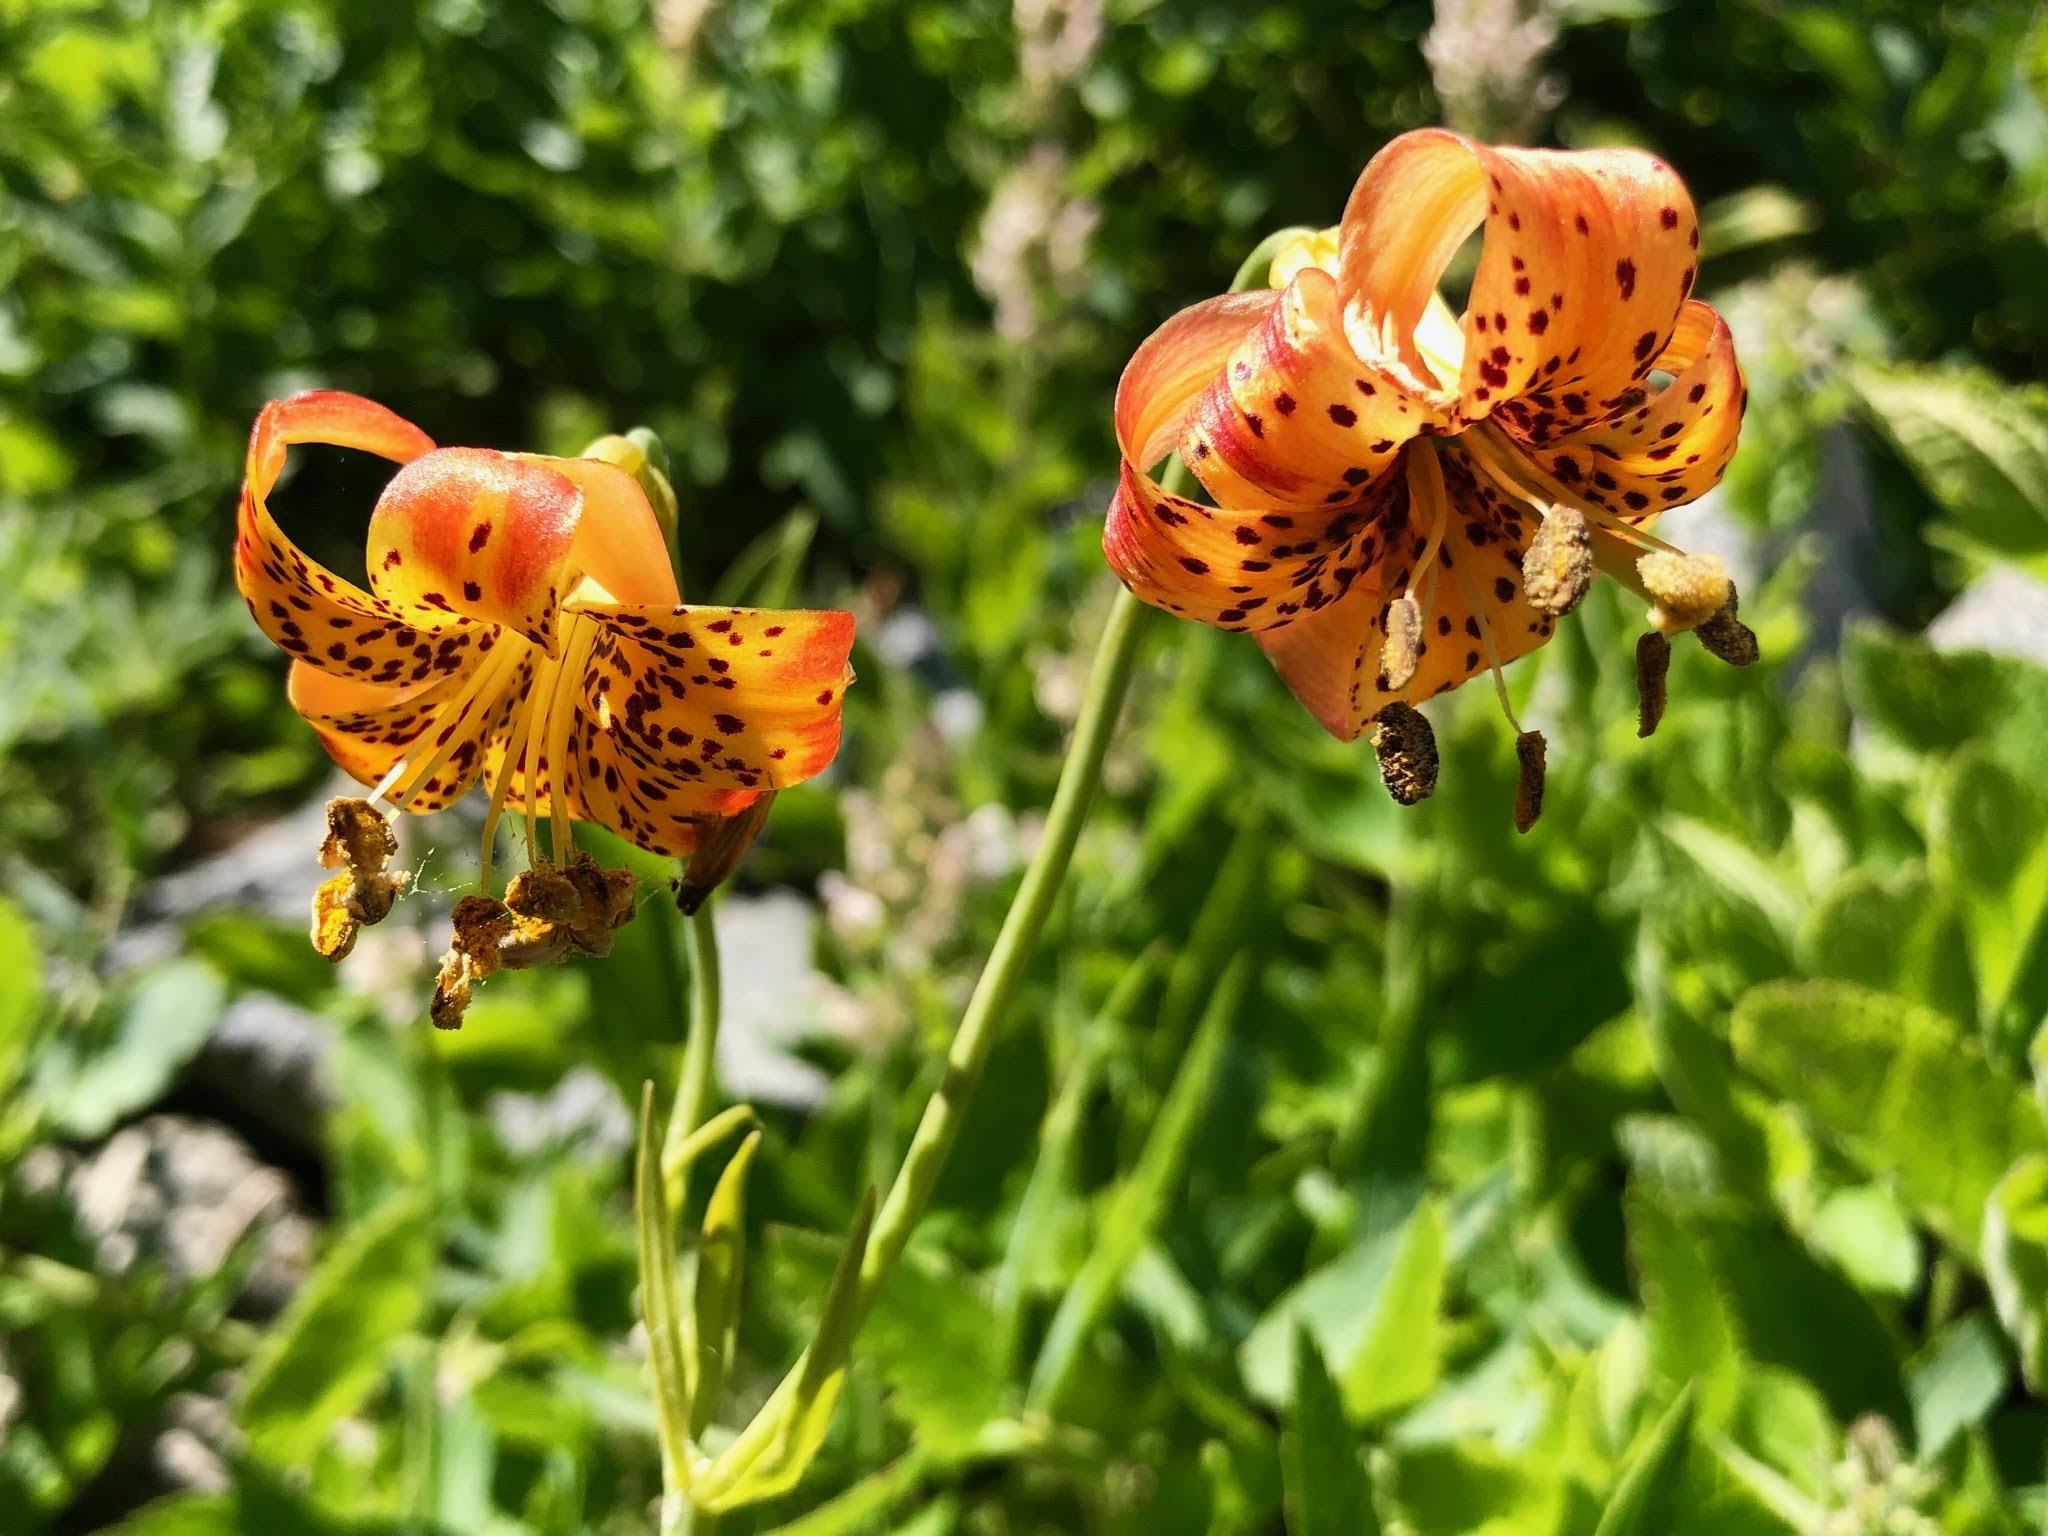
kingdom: Plantae
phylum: Tracheophyta
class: Liliopsida
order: Liliales
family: Liliaceae
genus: Lilium
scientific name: Lilium pardalinum
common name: Panther lily
